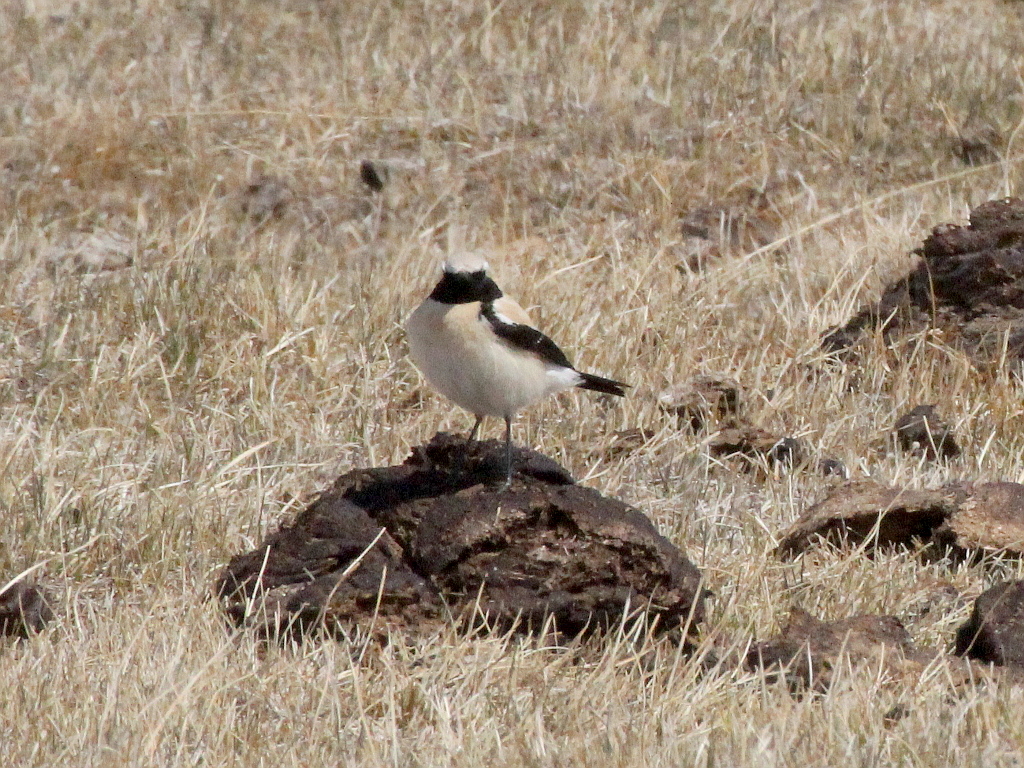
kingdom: Animalia
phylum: Chordata
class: Aves
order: Passeriformes
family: Muscicapidae
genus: Oenanthe
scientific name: Oenanthe deserti
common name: Desert wheatear
